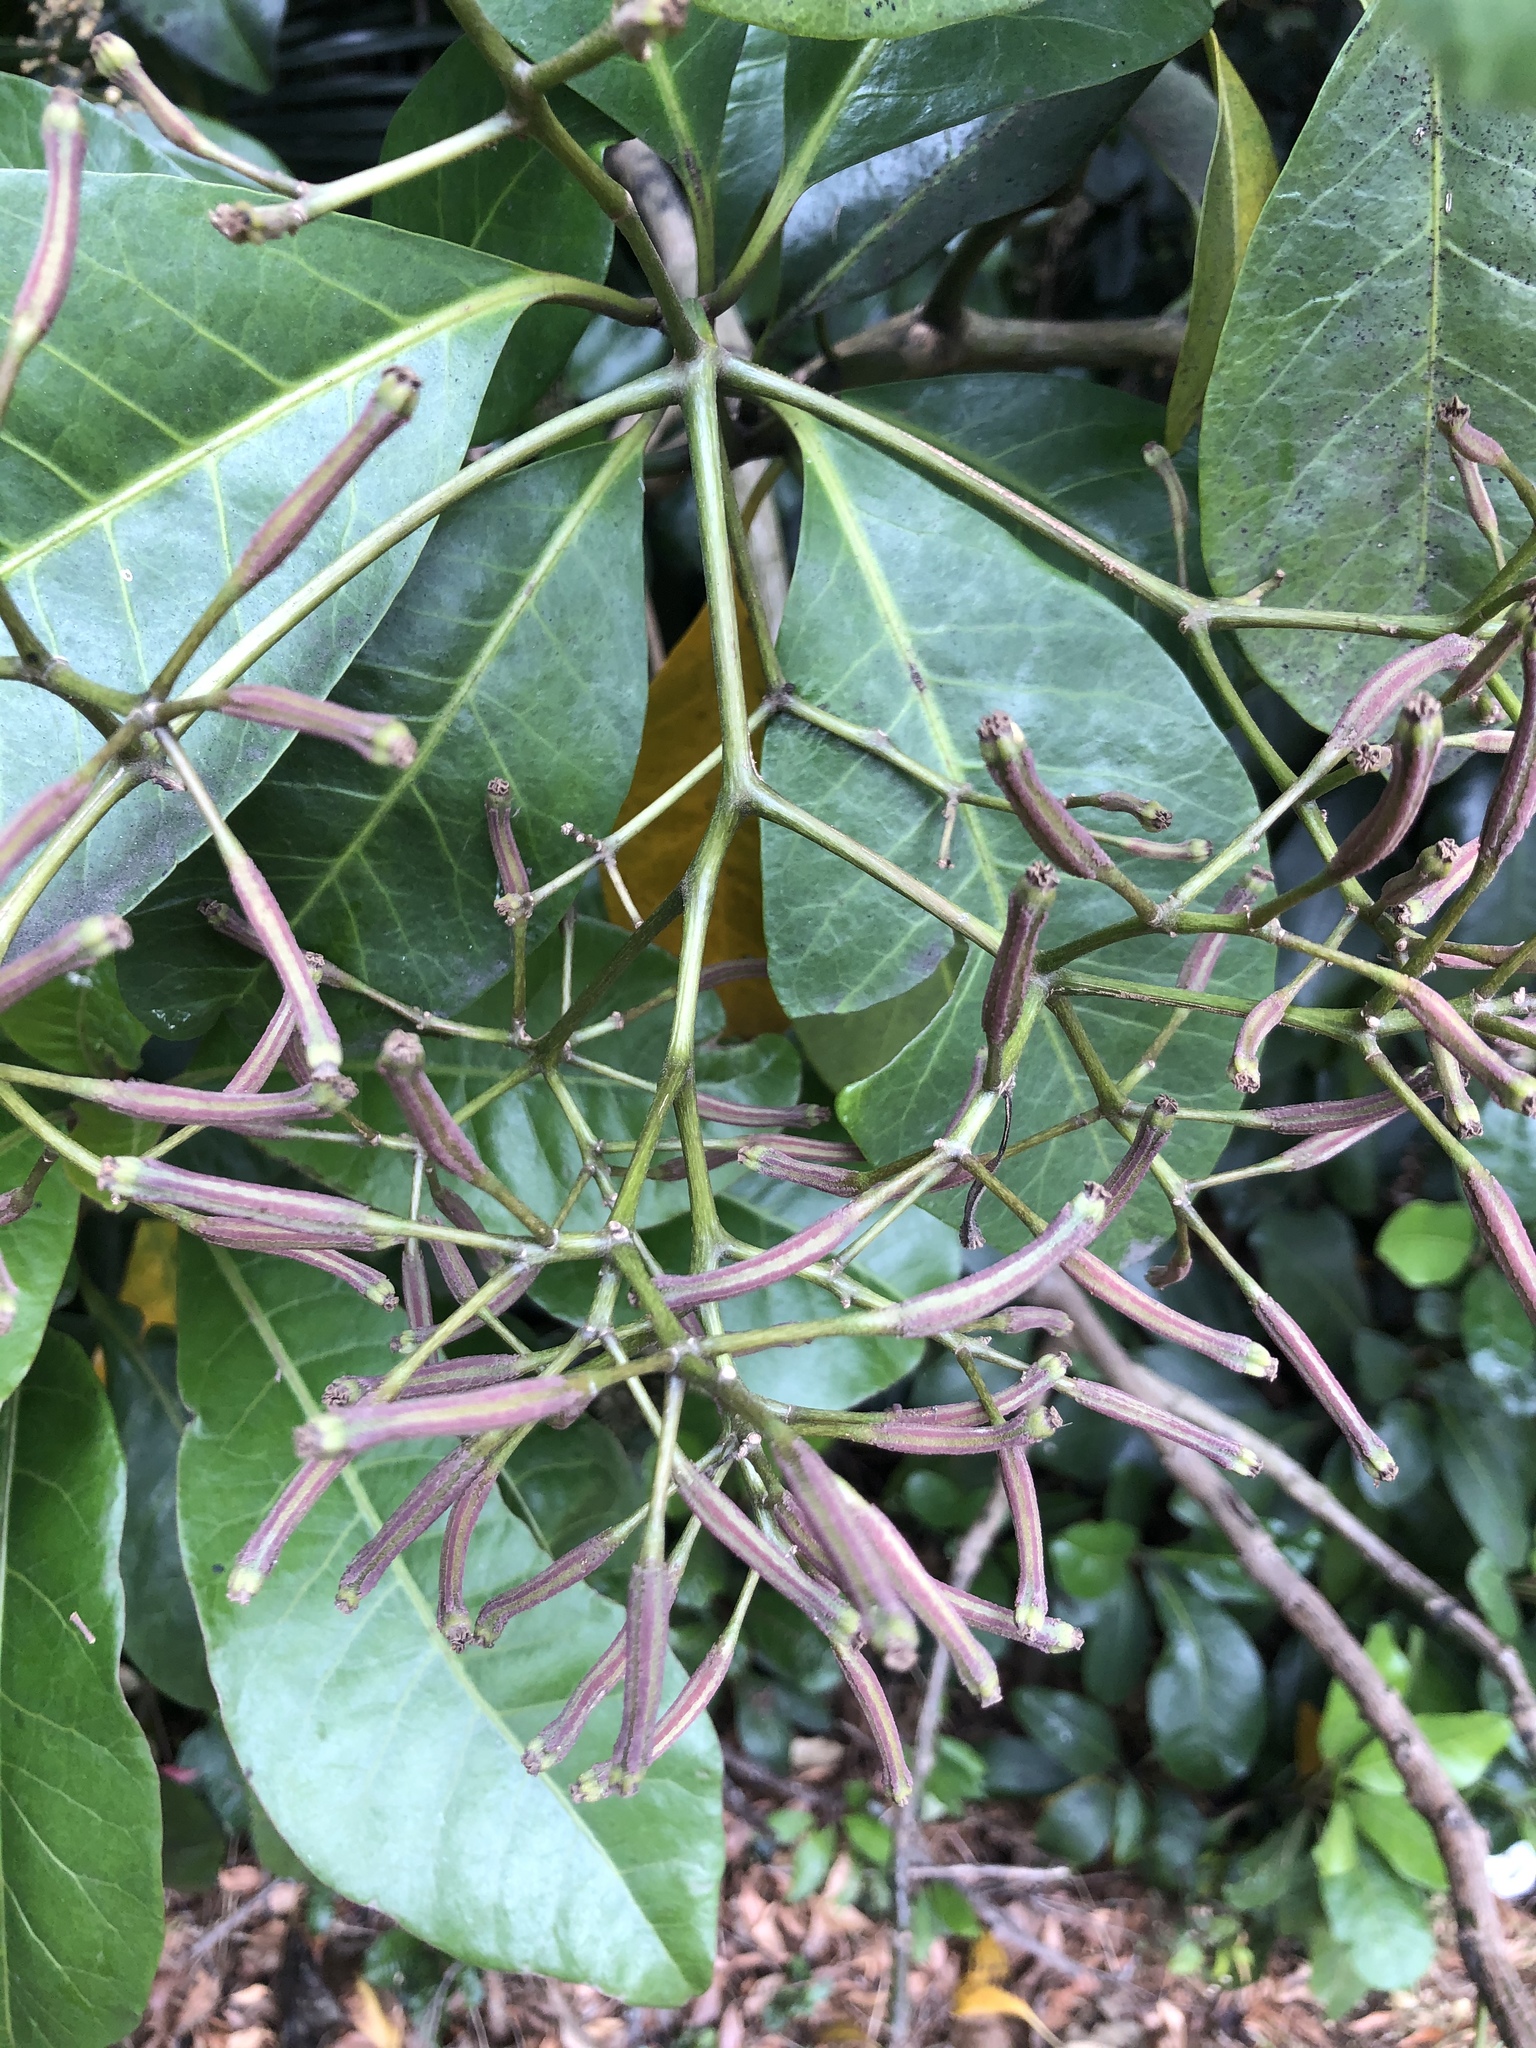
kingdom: Plantae
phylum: Tracheophyta
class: Magnoliopsida
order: Caryophyllales
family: Nyctaginaceae
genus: Ceodes
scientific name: Ceodes brunoniana
